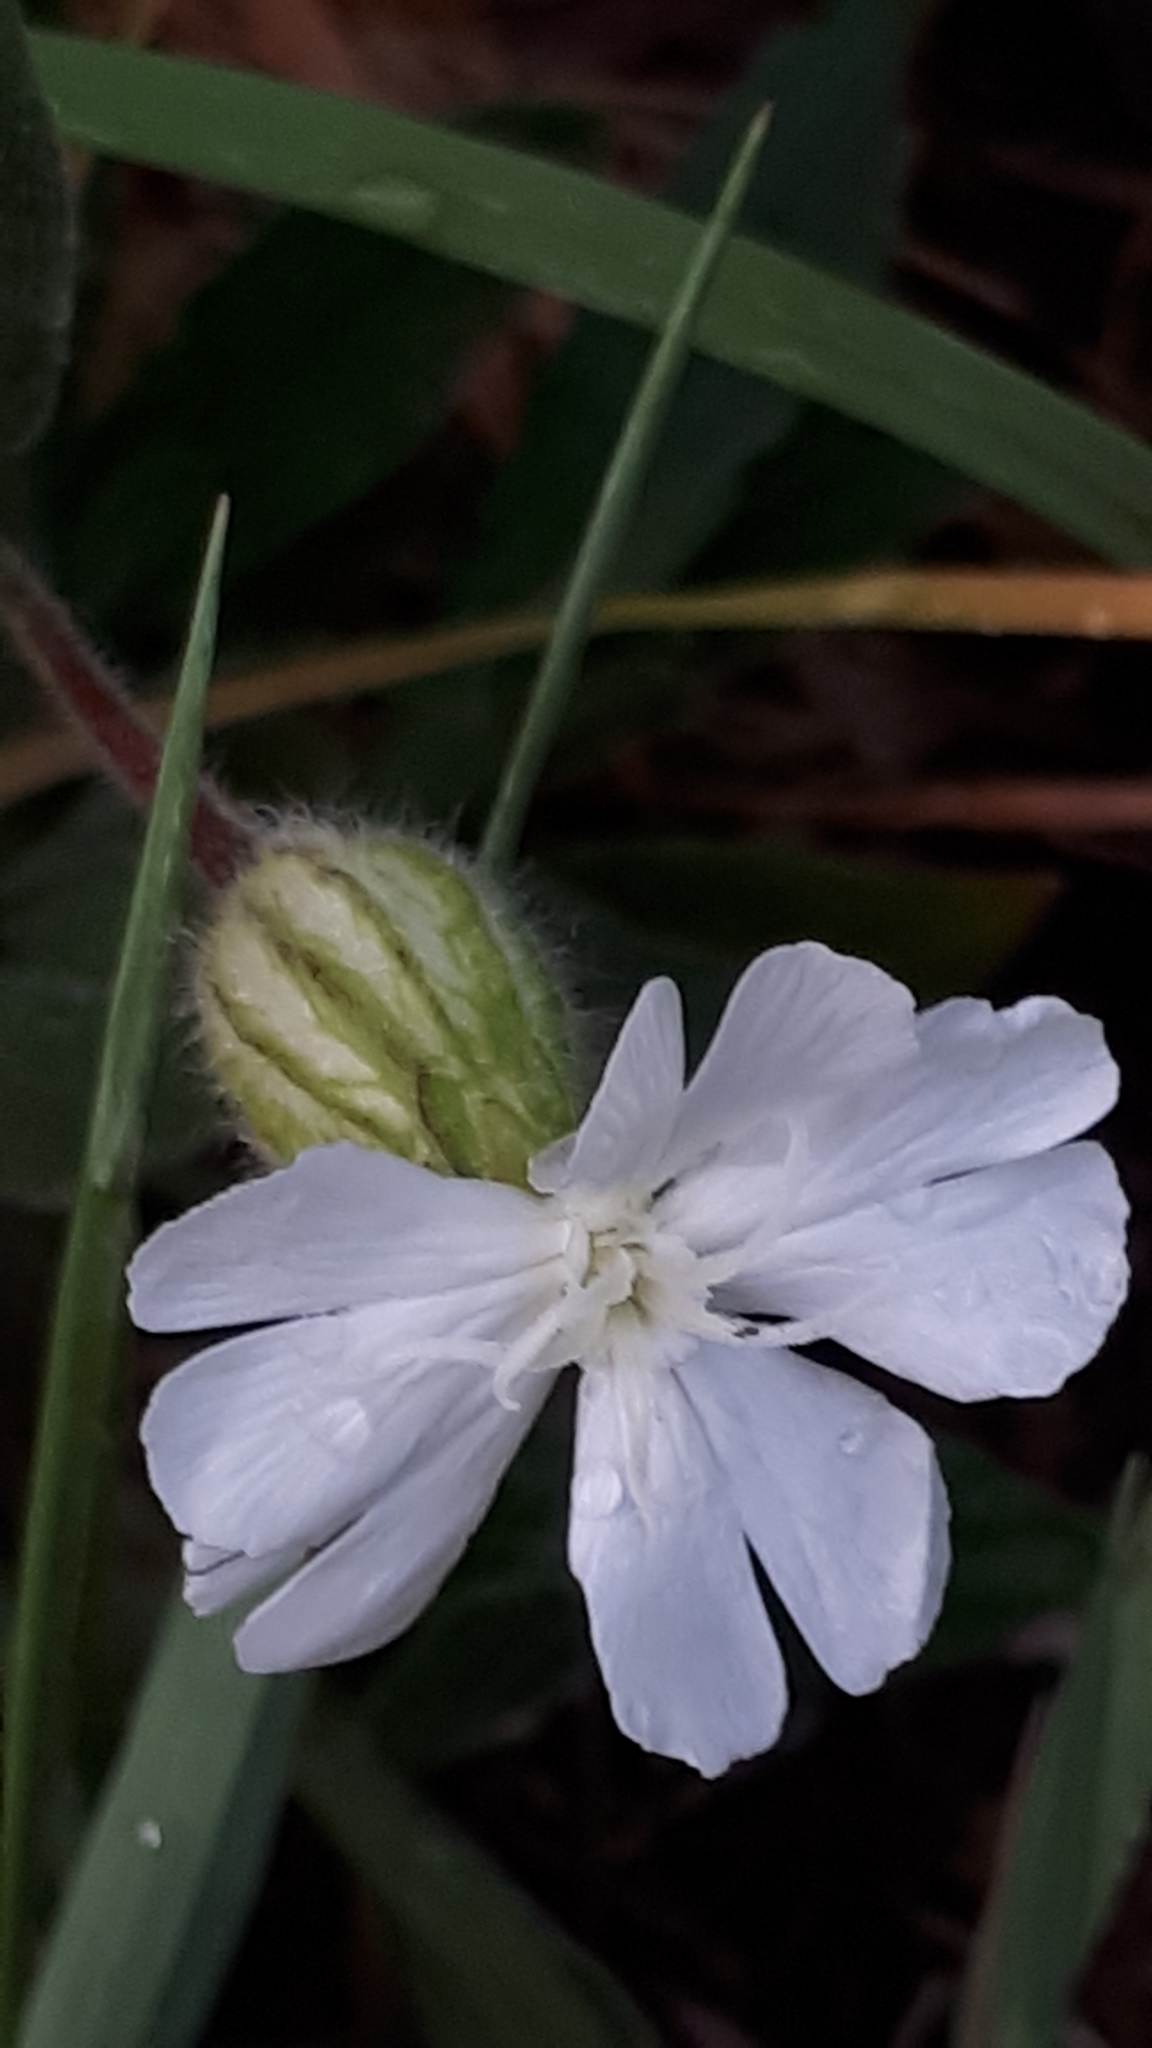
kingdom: Plantae
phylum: Tracheophyta
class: Magnoliopsida
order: Caryophyllales
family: Caryophyllaceae
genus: Silene
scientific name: Silene latifolia
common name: White campion
